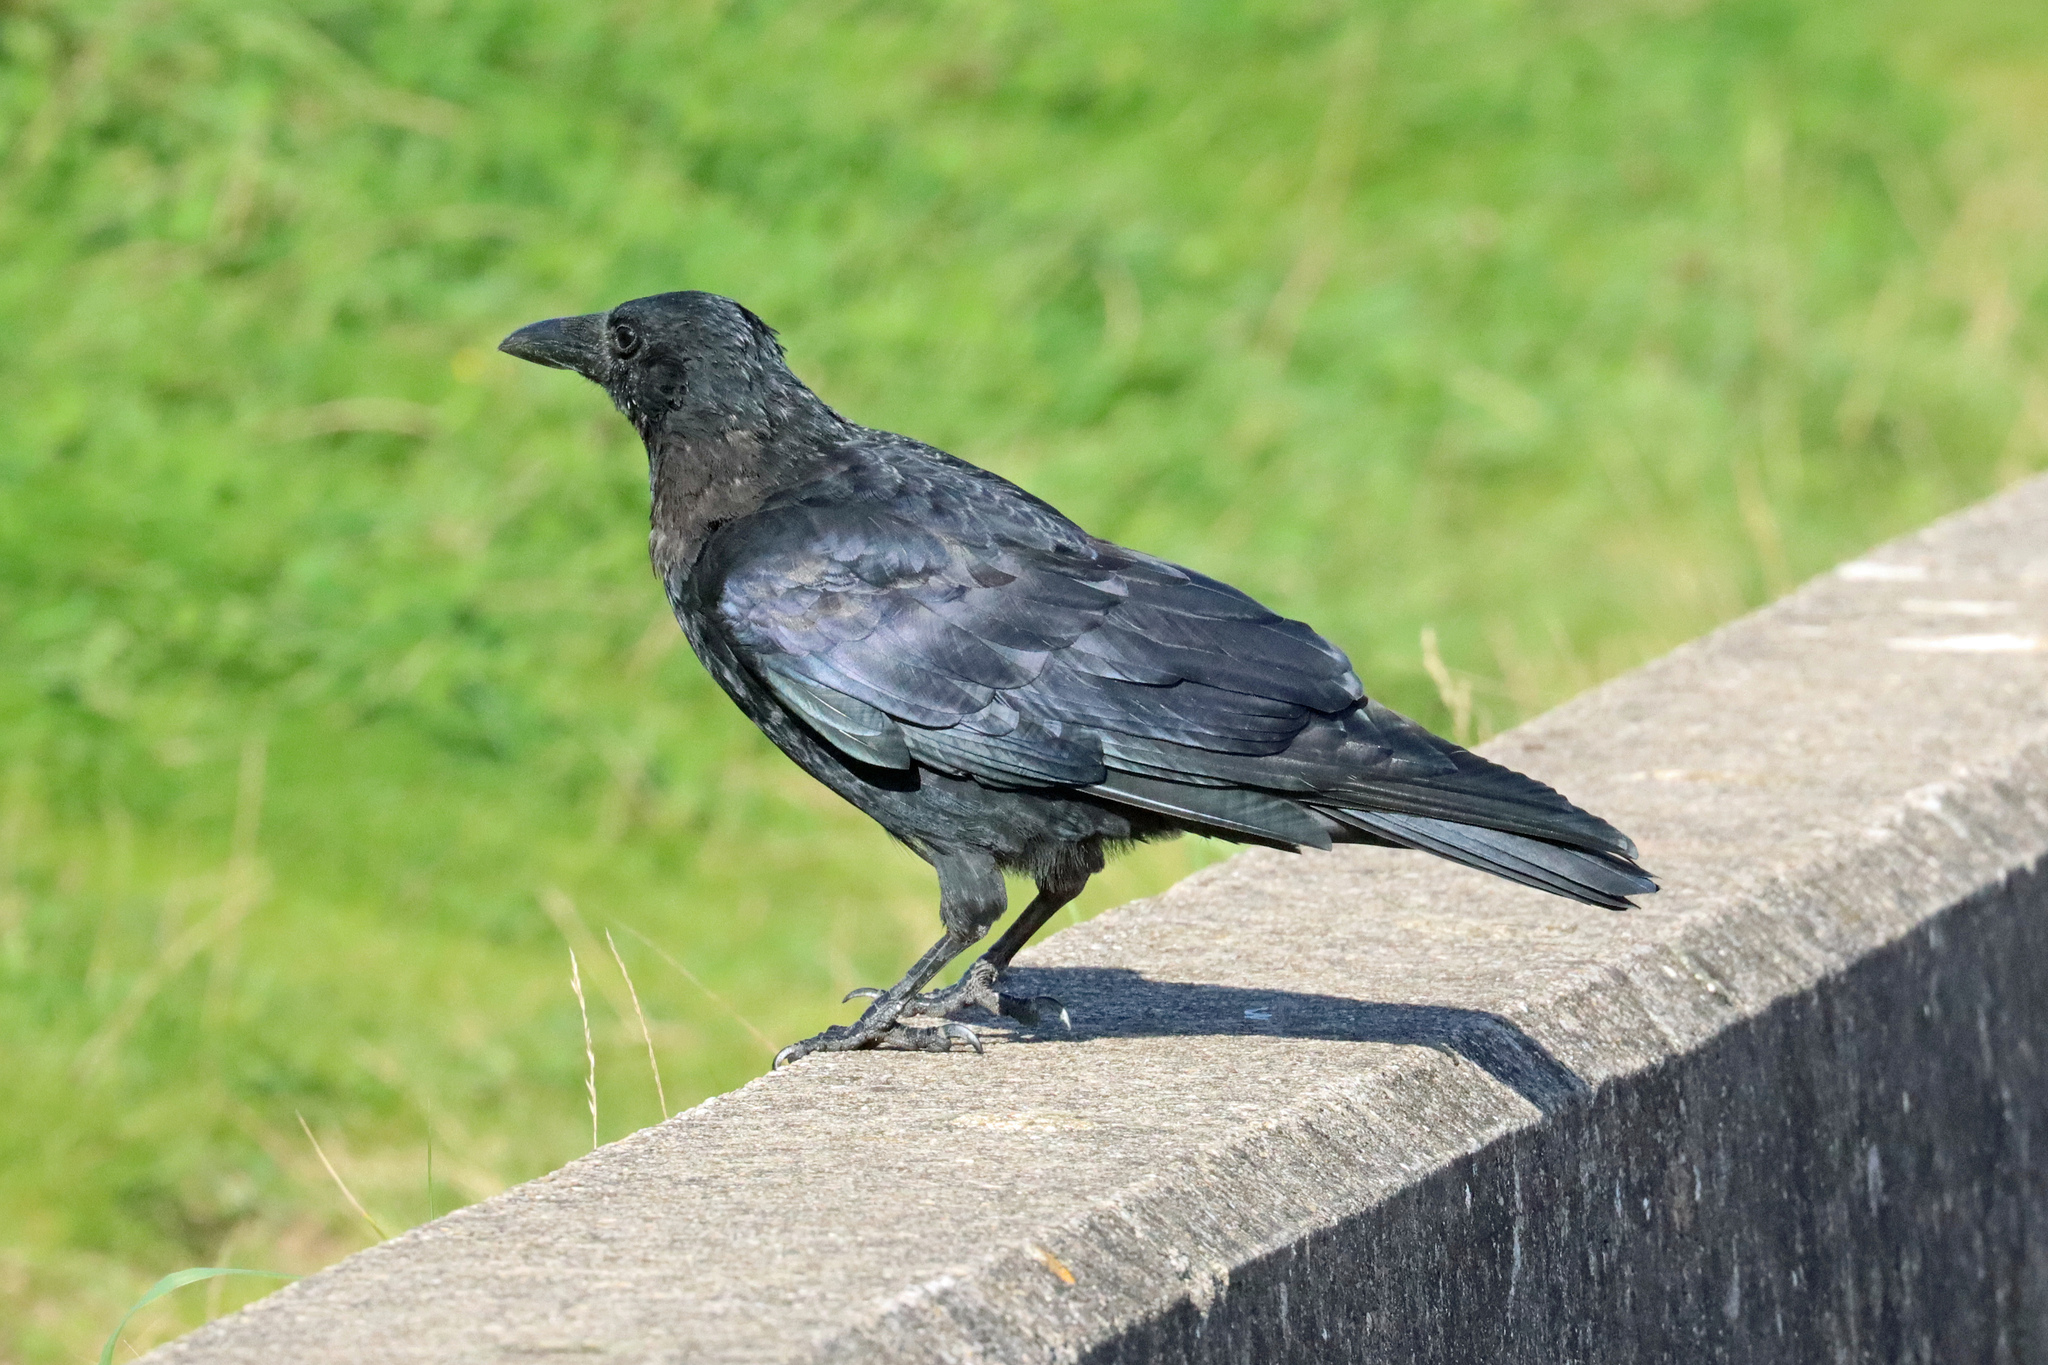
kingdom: Animalia
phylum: Chordata
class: Aves
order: Passeriformes
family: Corvidae
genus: Corvus
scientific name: Corvus corone
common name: Carrion crow
